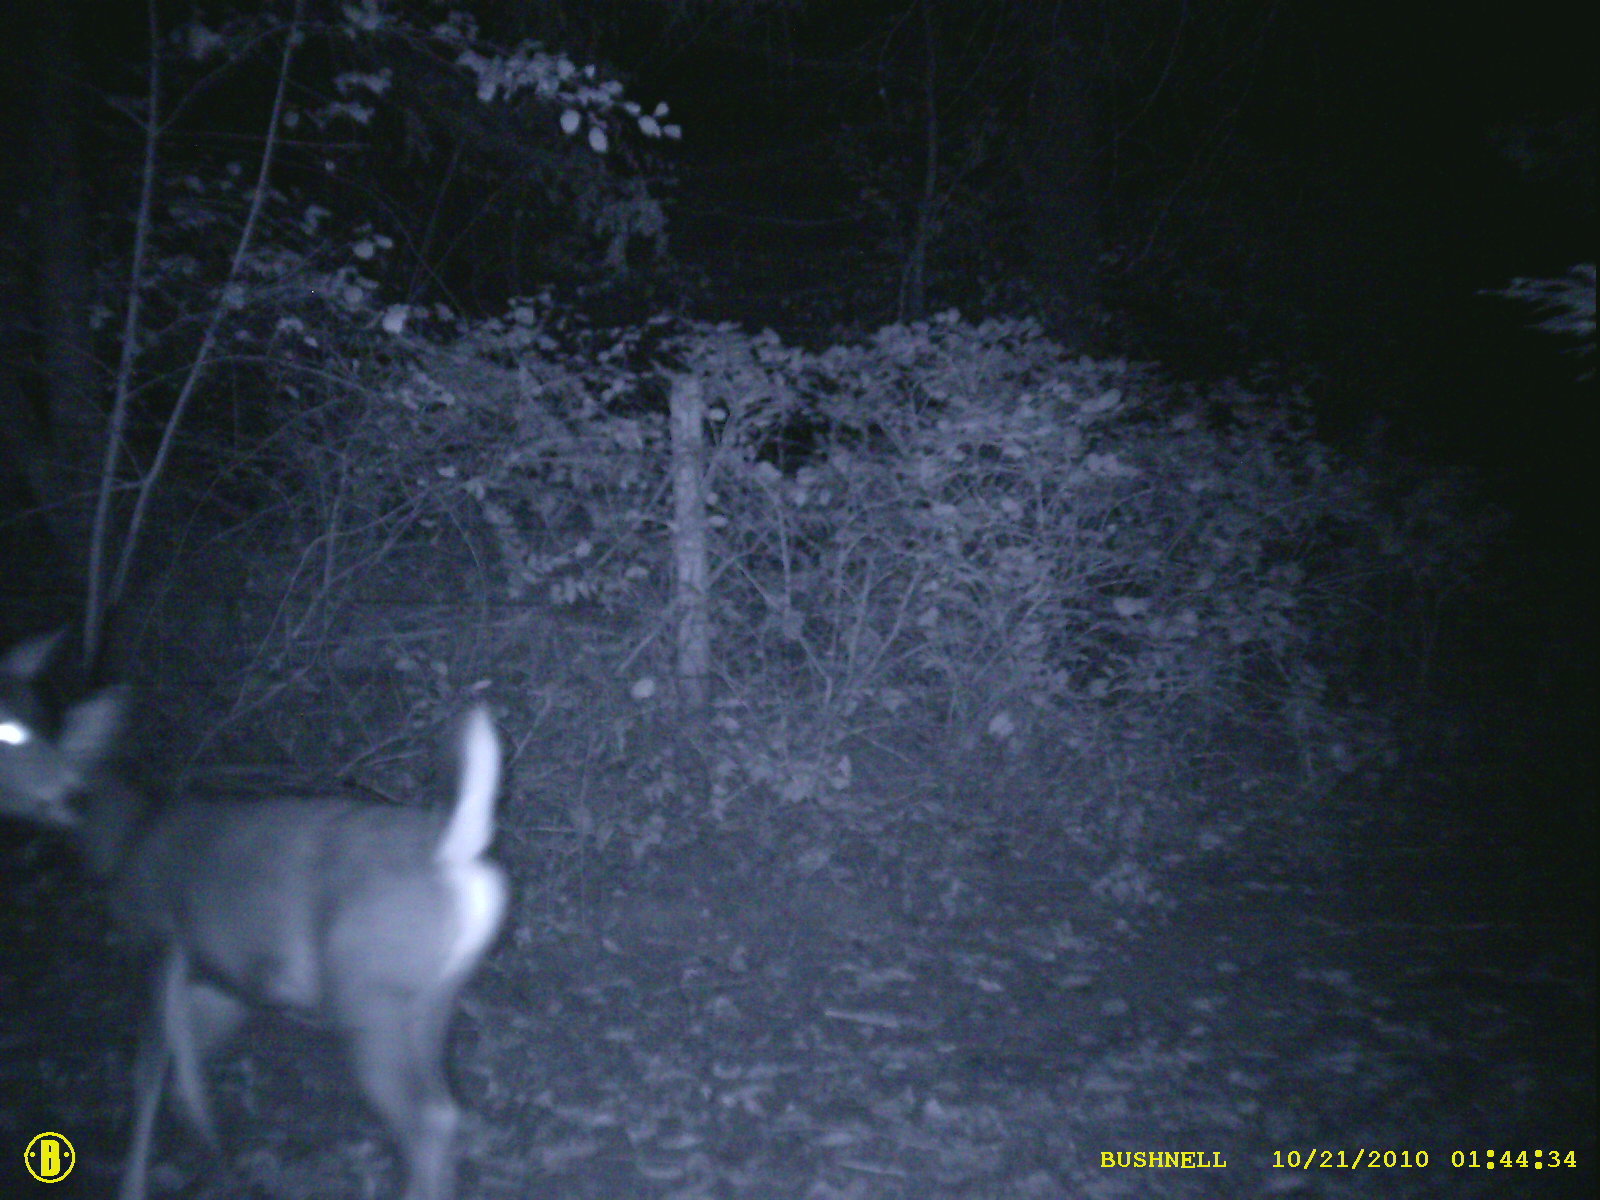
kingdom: Animalia
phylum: Chordata
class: Mammalia
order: Artiodactyla
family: Cervidae
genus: Odocoileus
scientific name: Odocoileus hemionus
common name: Mule deer
